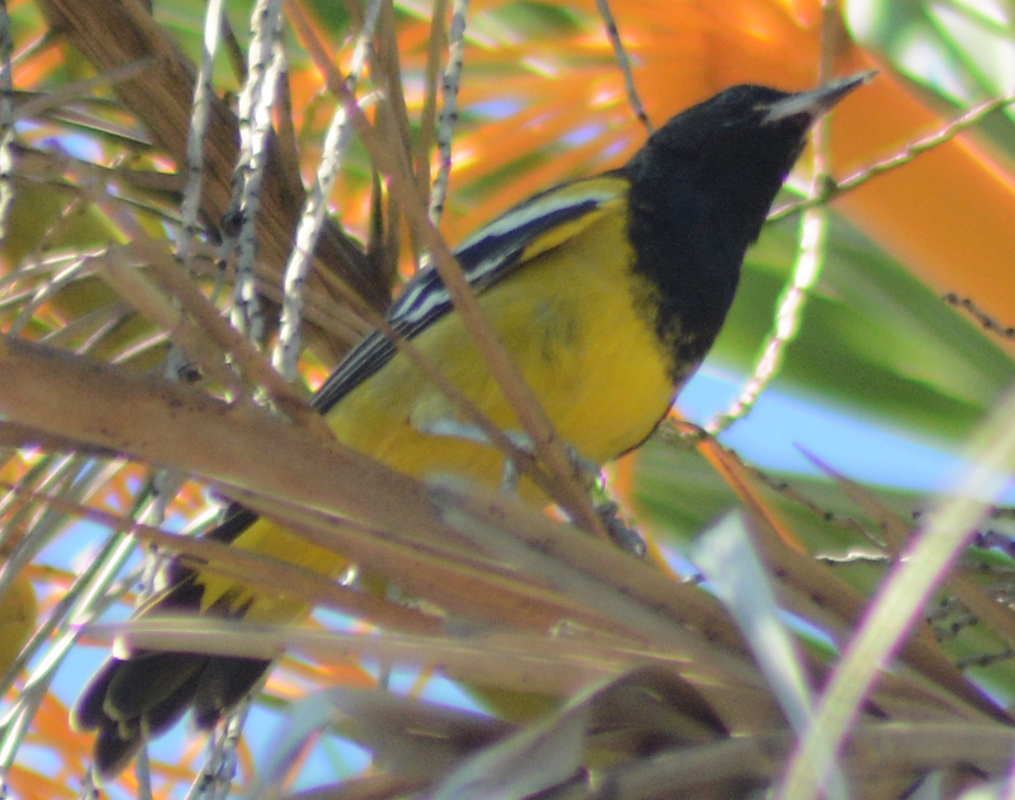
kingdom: Animalia
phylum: Chordata
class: Aves
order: Passeriformes
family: Icteridae
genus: Icterus
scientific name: Icterus parisorum
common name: Scott's oriole
